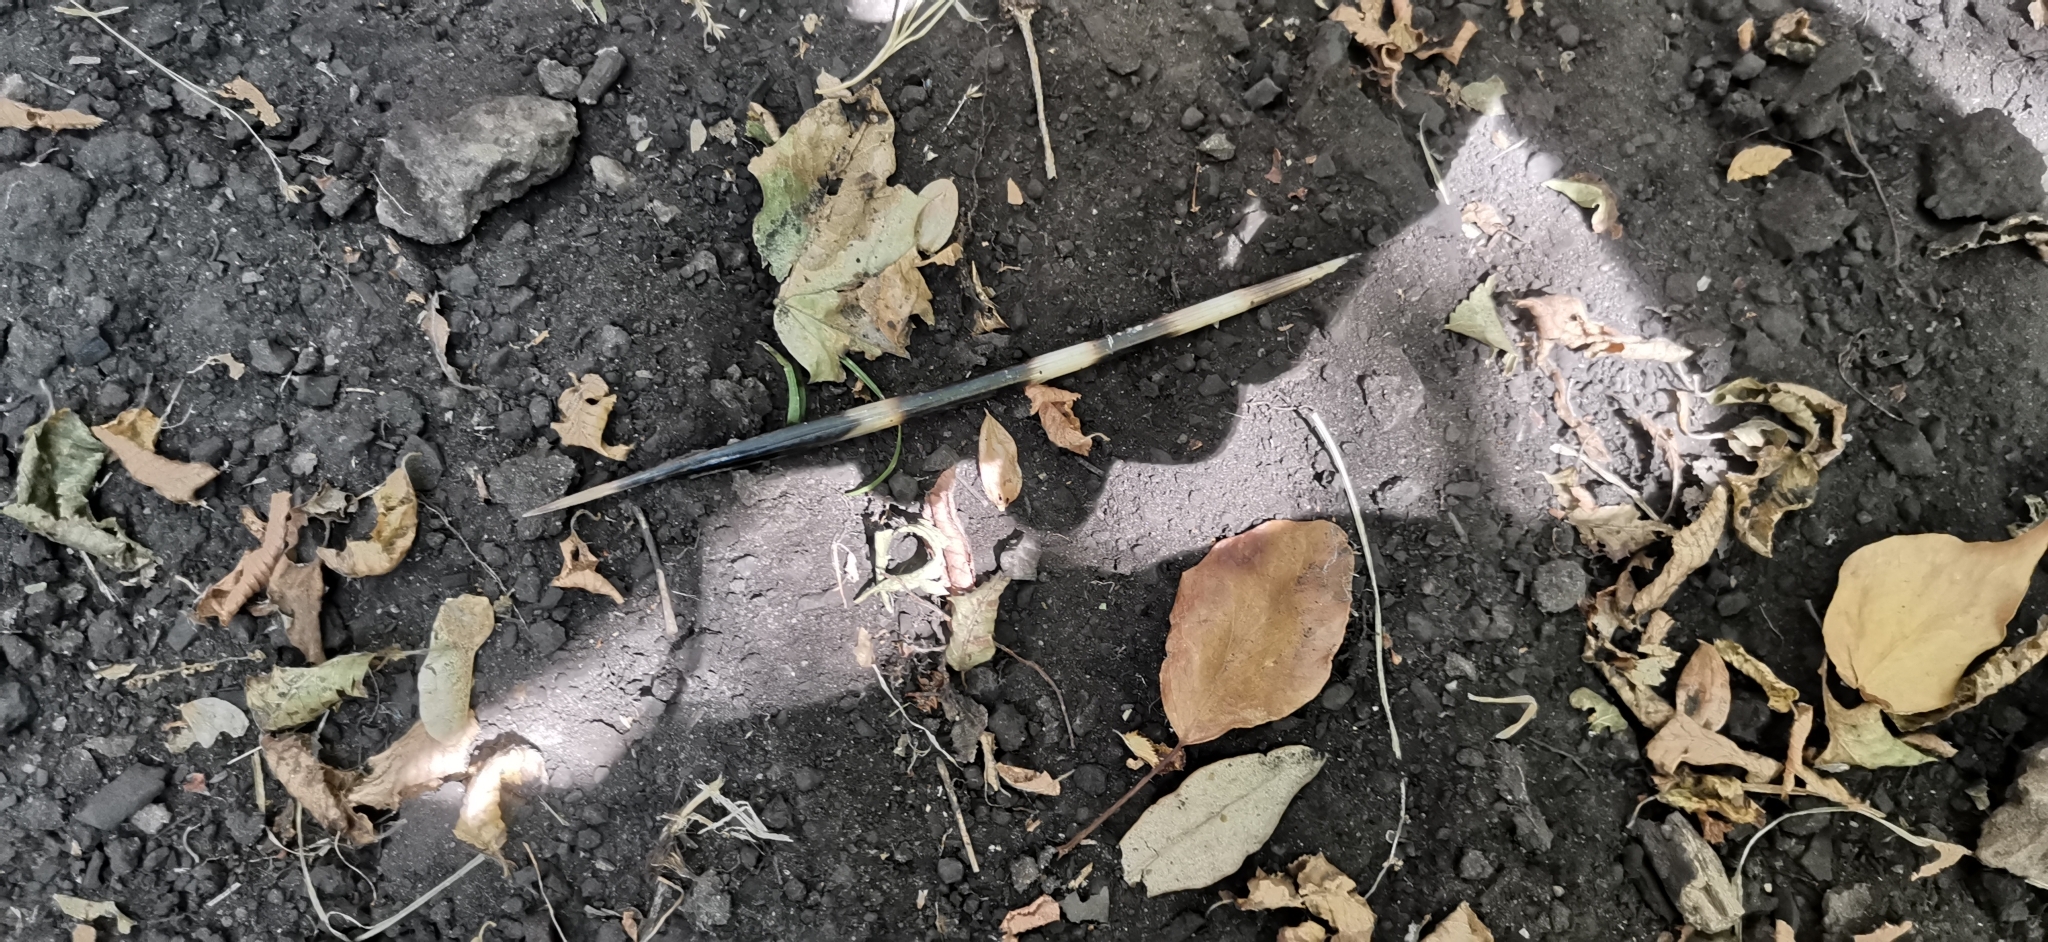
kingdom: Animalia
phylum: Chordata
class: Mammalia
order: Rodentia
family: Hystricidae
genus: Hystrix
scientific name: Hystrix cristata
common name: Crested porcupine
